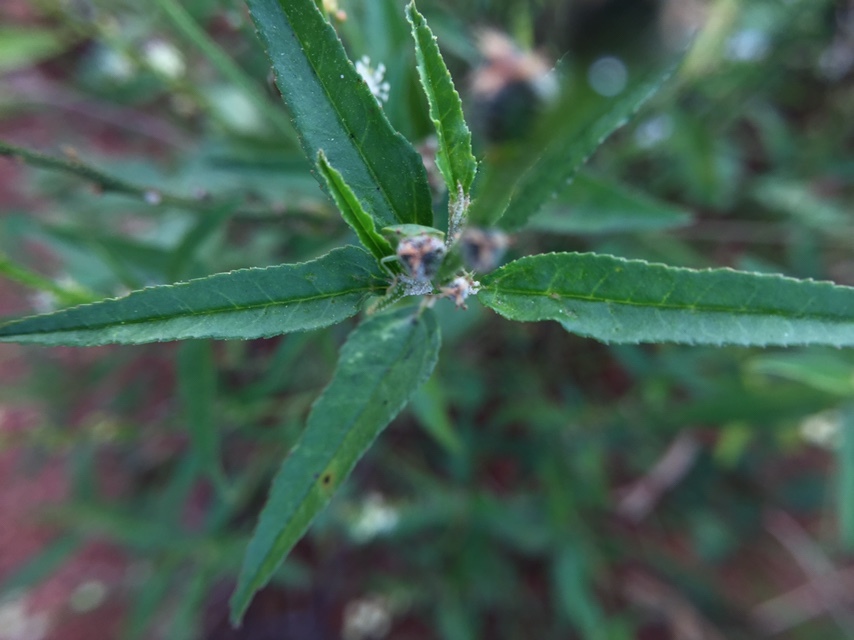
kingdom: Plantae
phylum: Tracheophyta
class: Magnoliopsida
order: Malpighiales
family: Euphorbiaceae
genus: Croton
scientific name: Croton bonplandianus
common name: Bonpland's croton
